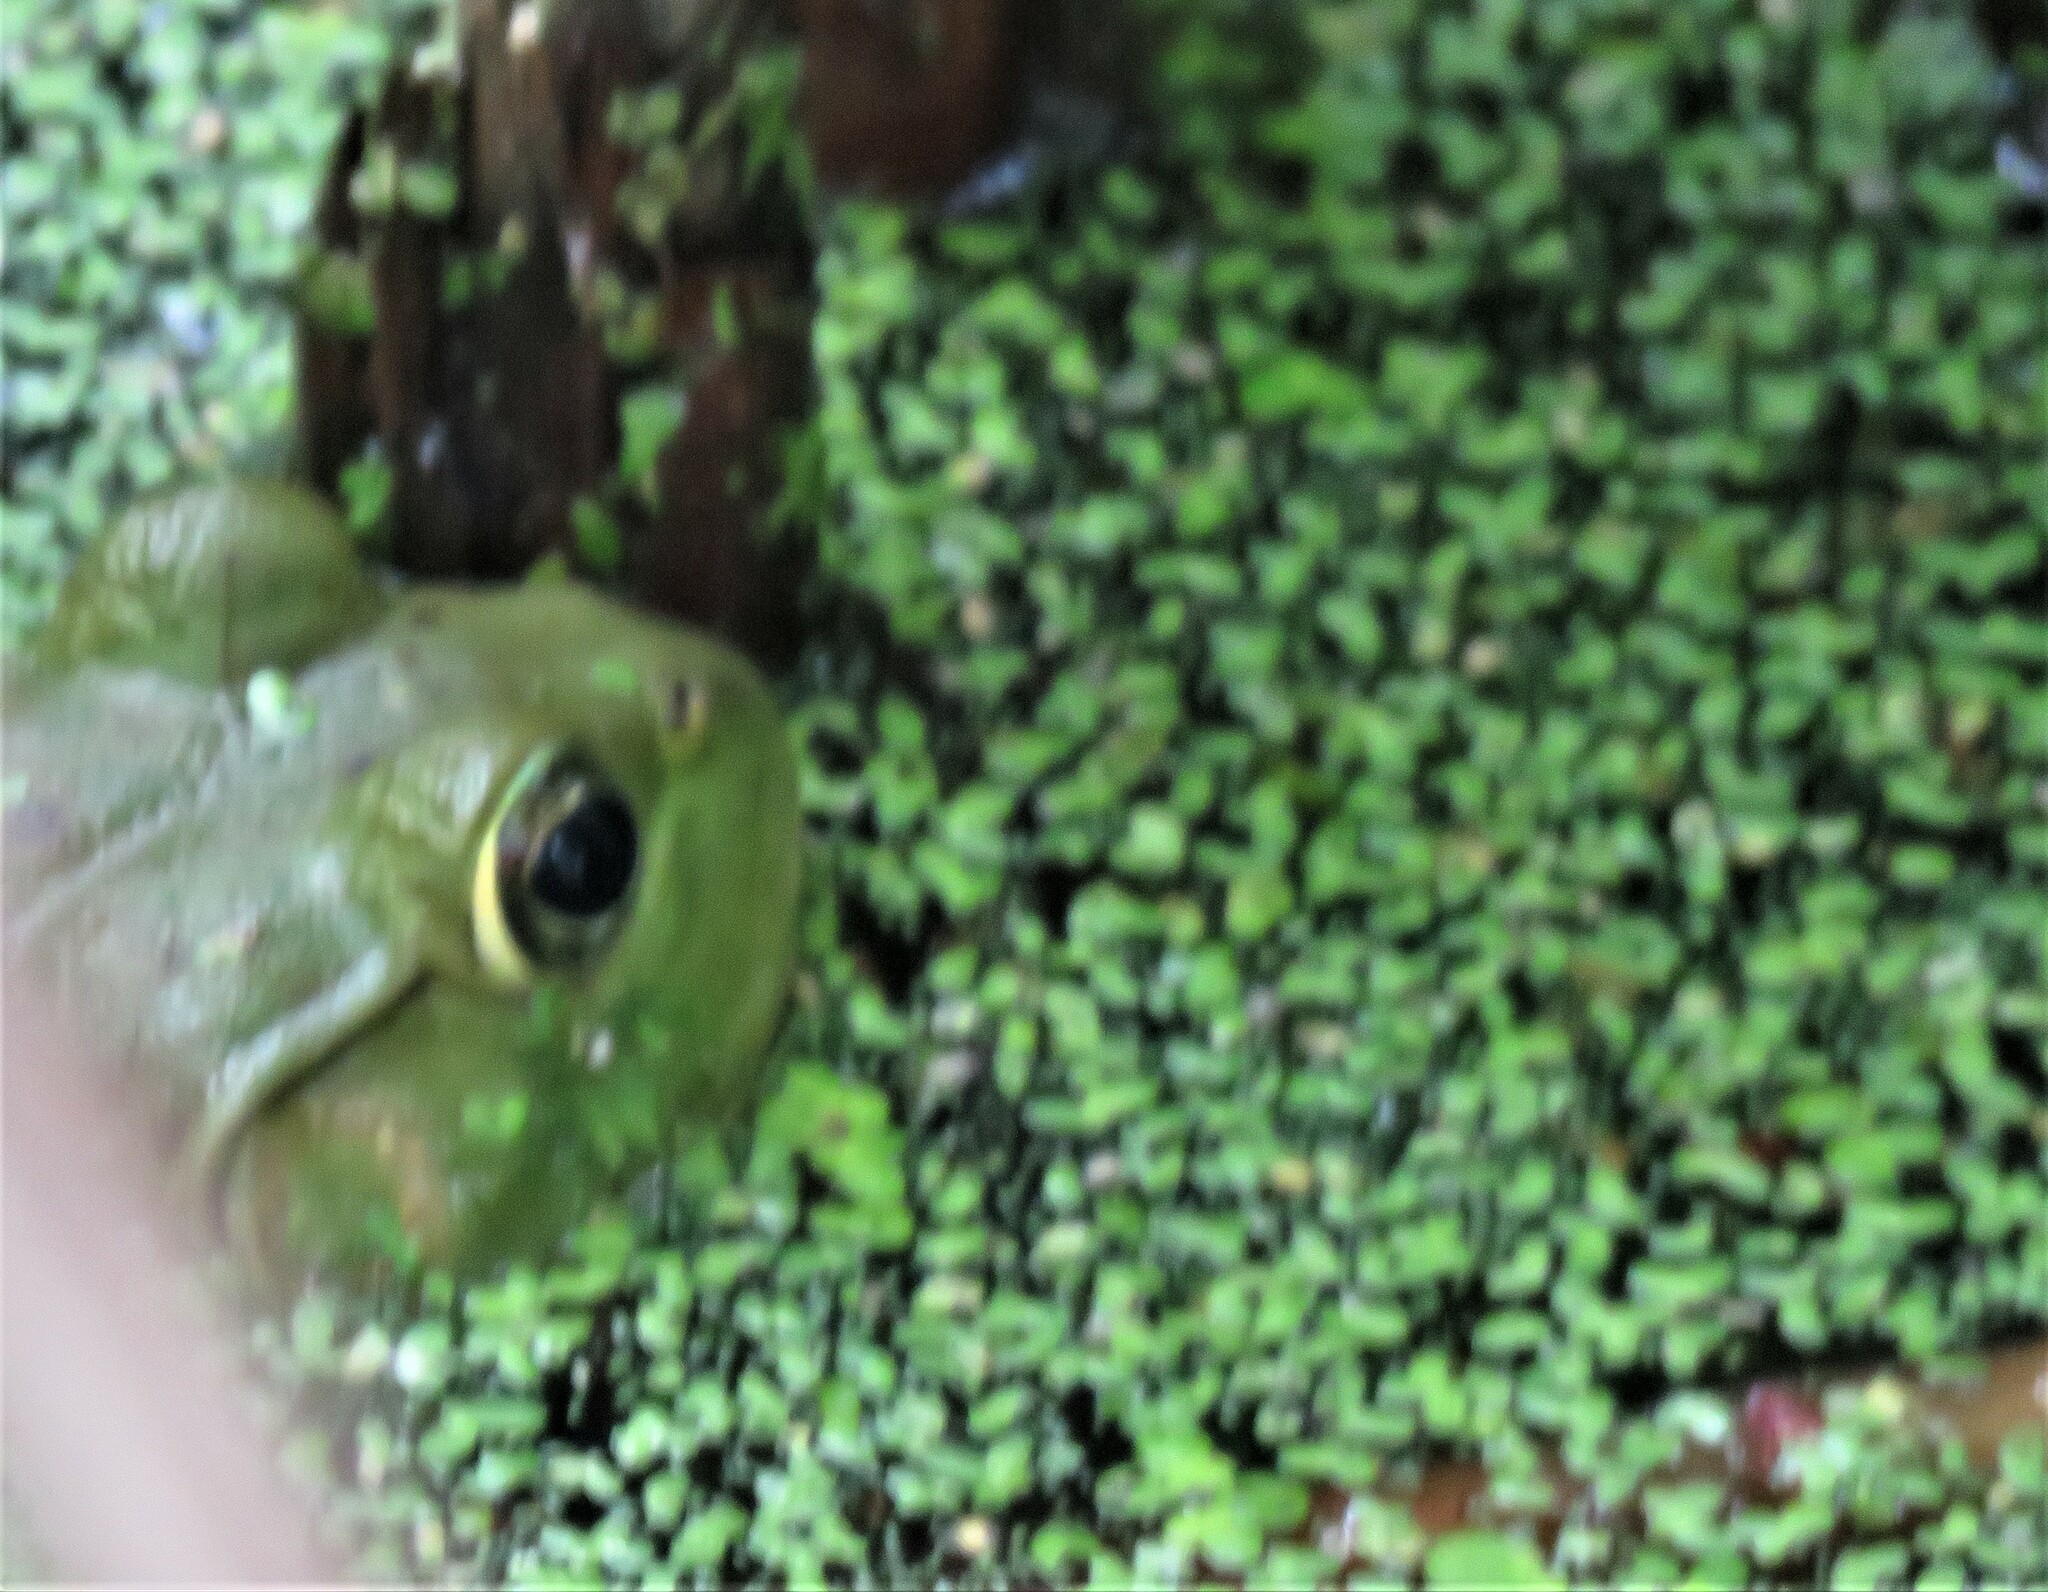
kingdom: Animalia
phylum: Chordata
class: Amphibia
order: Anura
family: Ranidae
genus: Lithobates
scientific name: Lithobates catesbeianus
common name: American bullfrog
